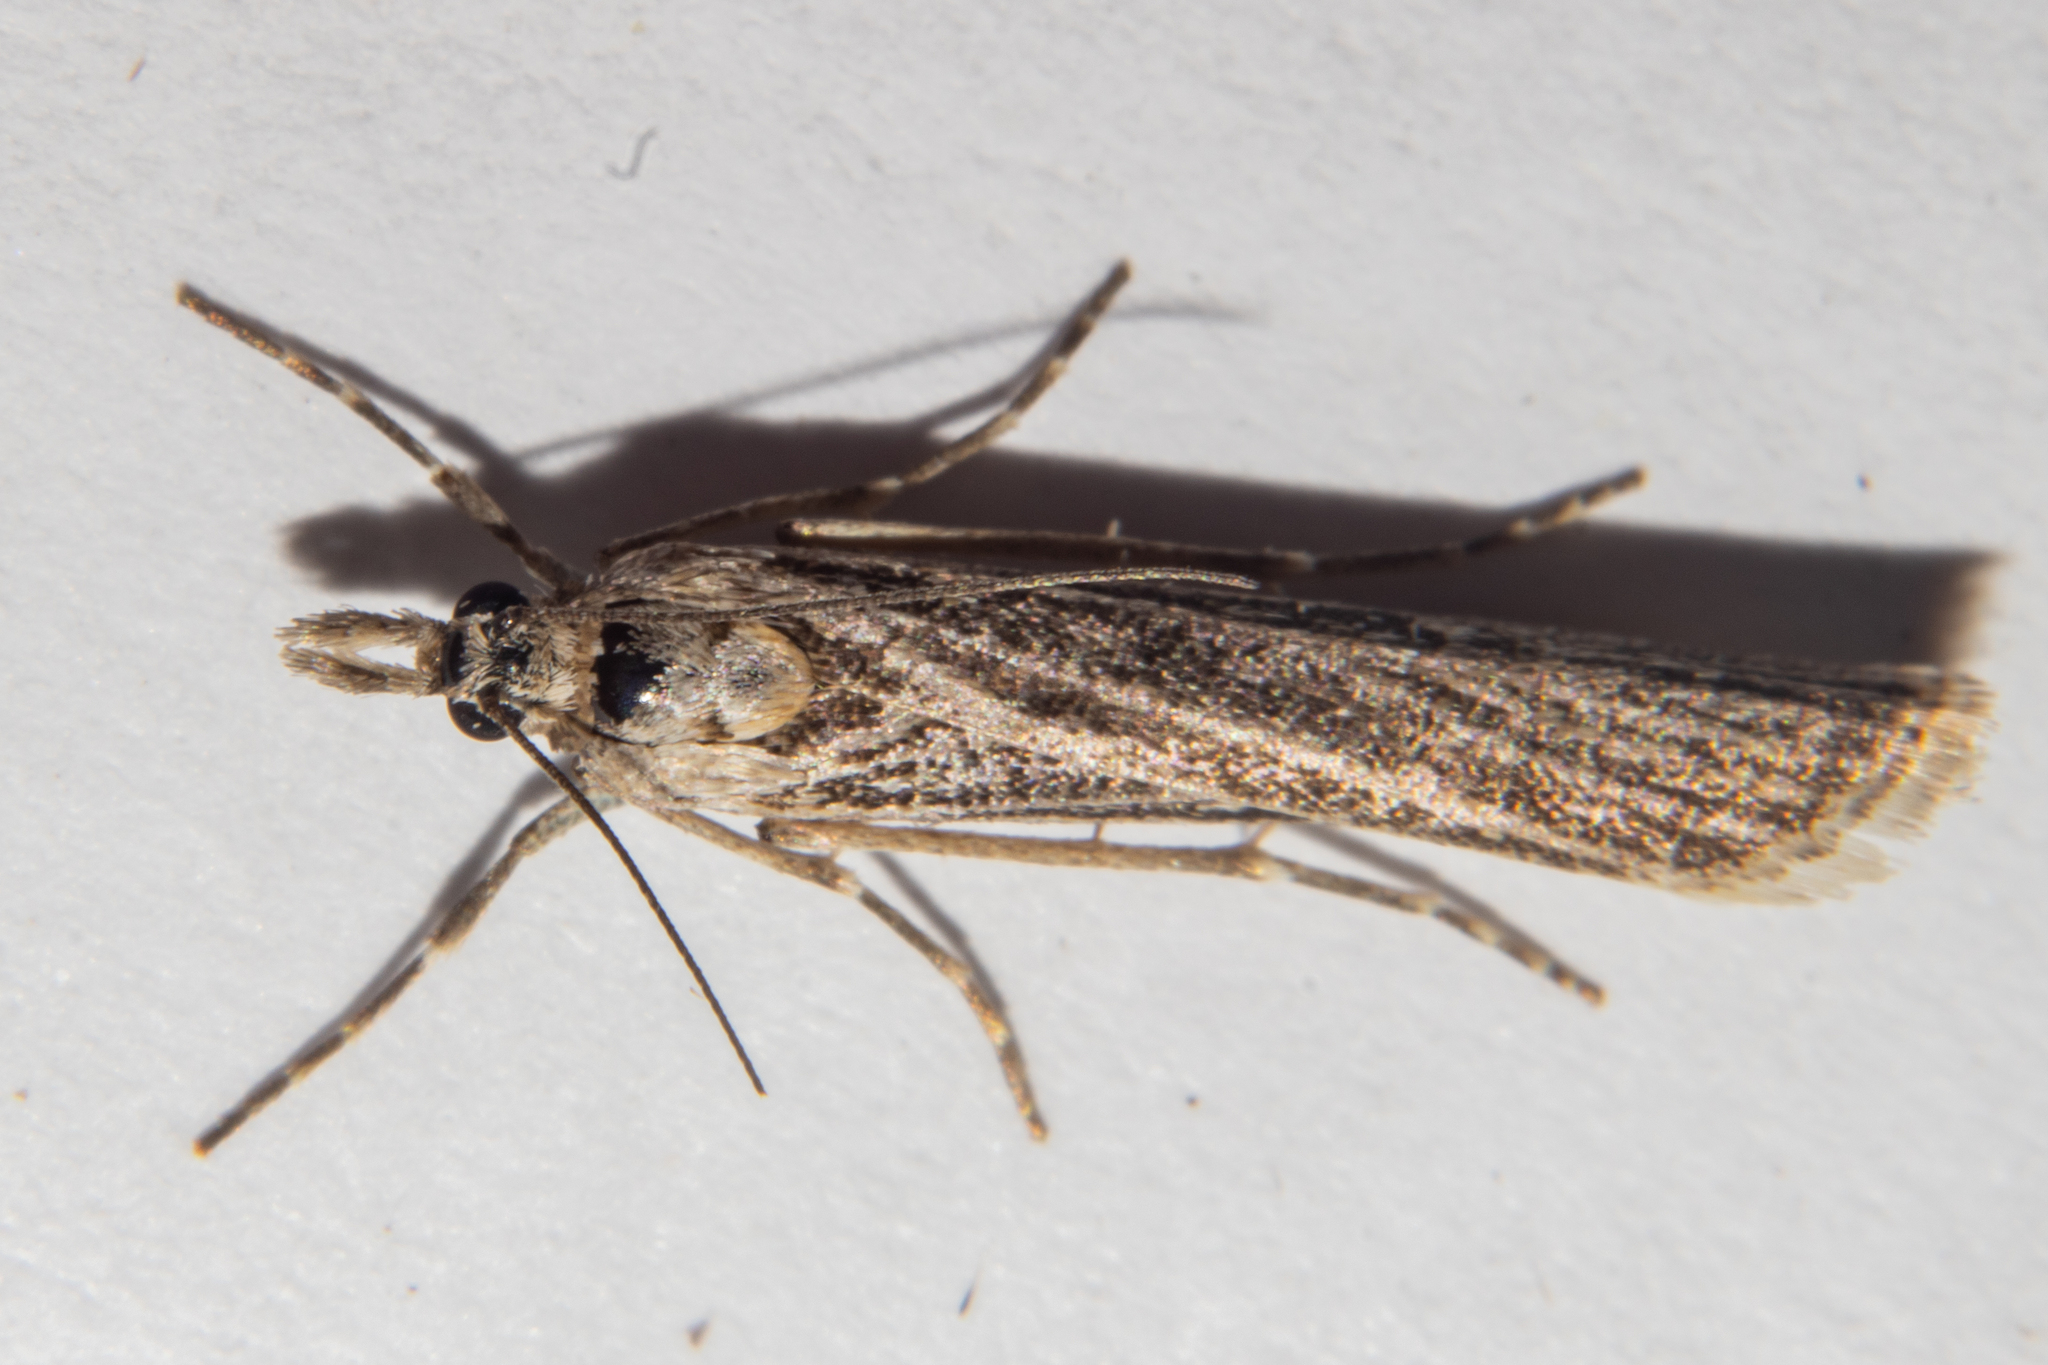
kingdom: Animalia
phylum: Arthropoda
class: Insecta
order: Lepidoptera
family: Crambidae
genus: Eudonia
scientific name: Eudonia atmogramma
